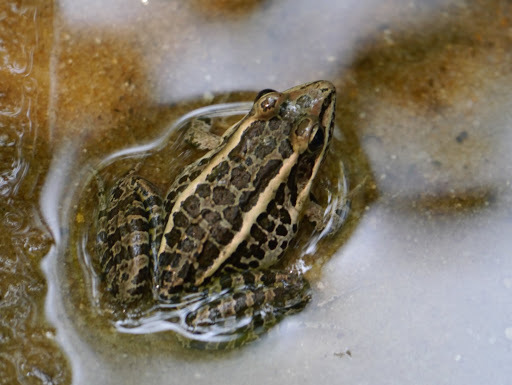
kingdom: Animalia
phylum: Chordata
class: Amphibia
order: Anura
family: Ranidae
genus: Lithobates
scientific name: Lithobates palustris
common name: Pickerel frog
